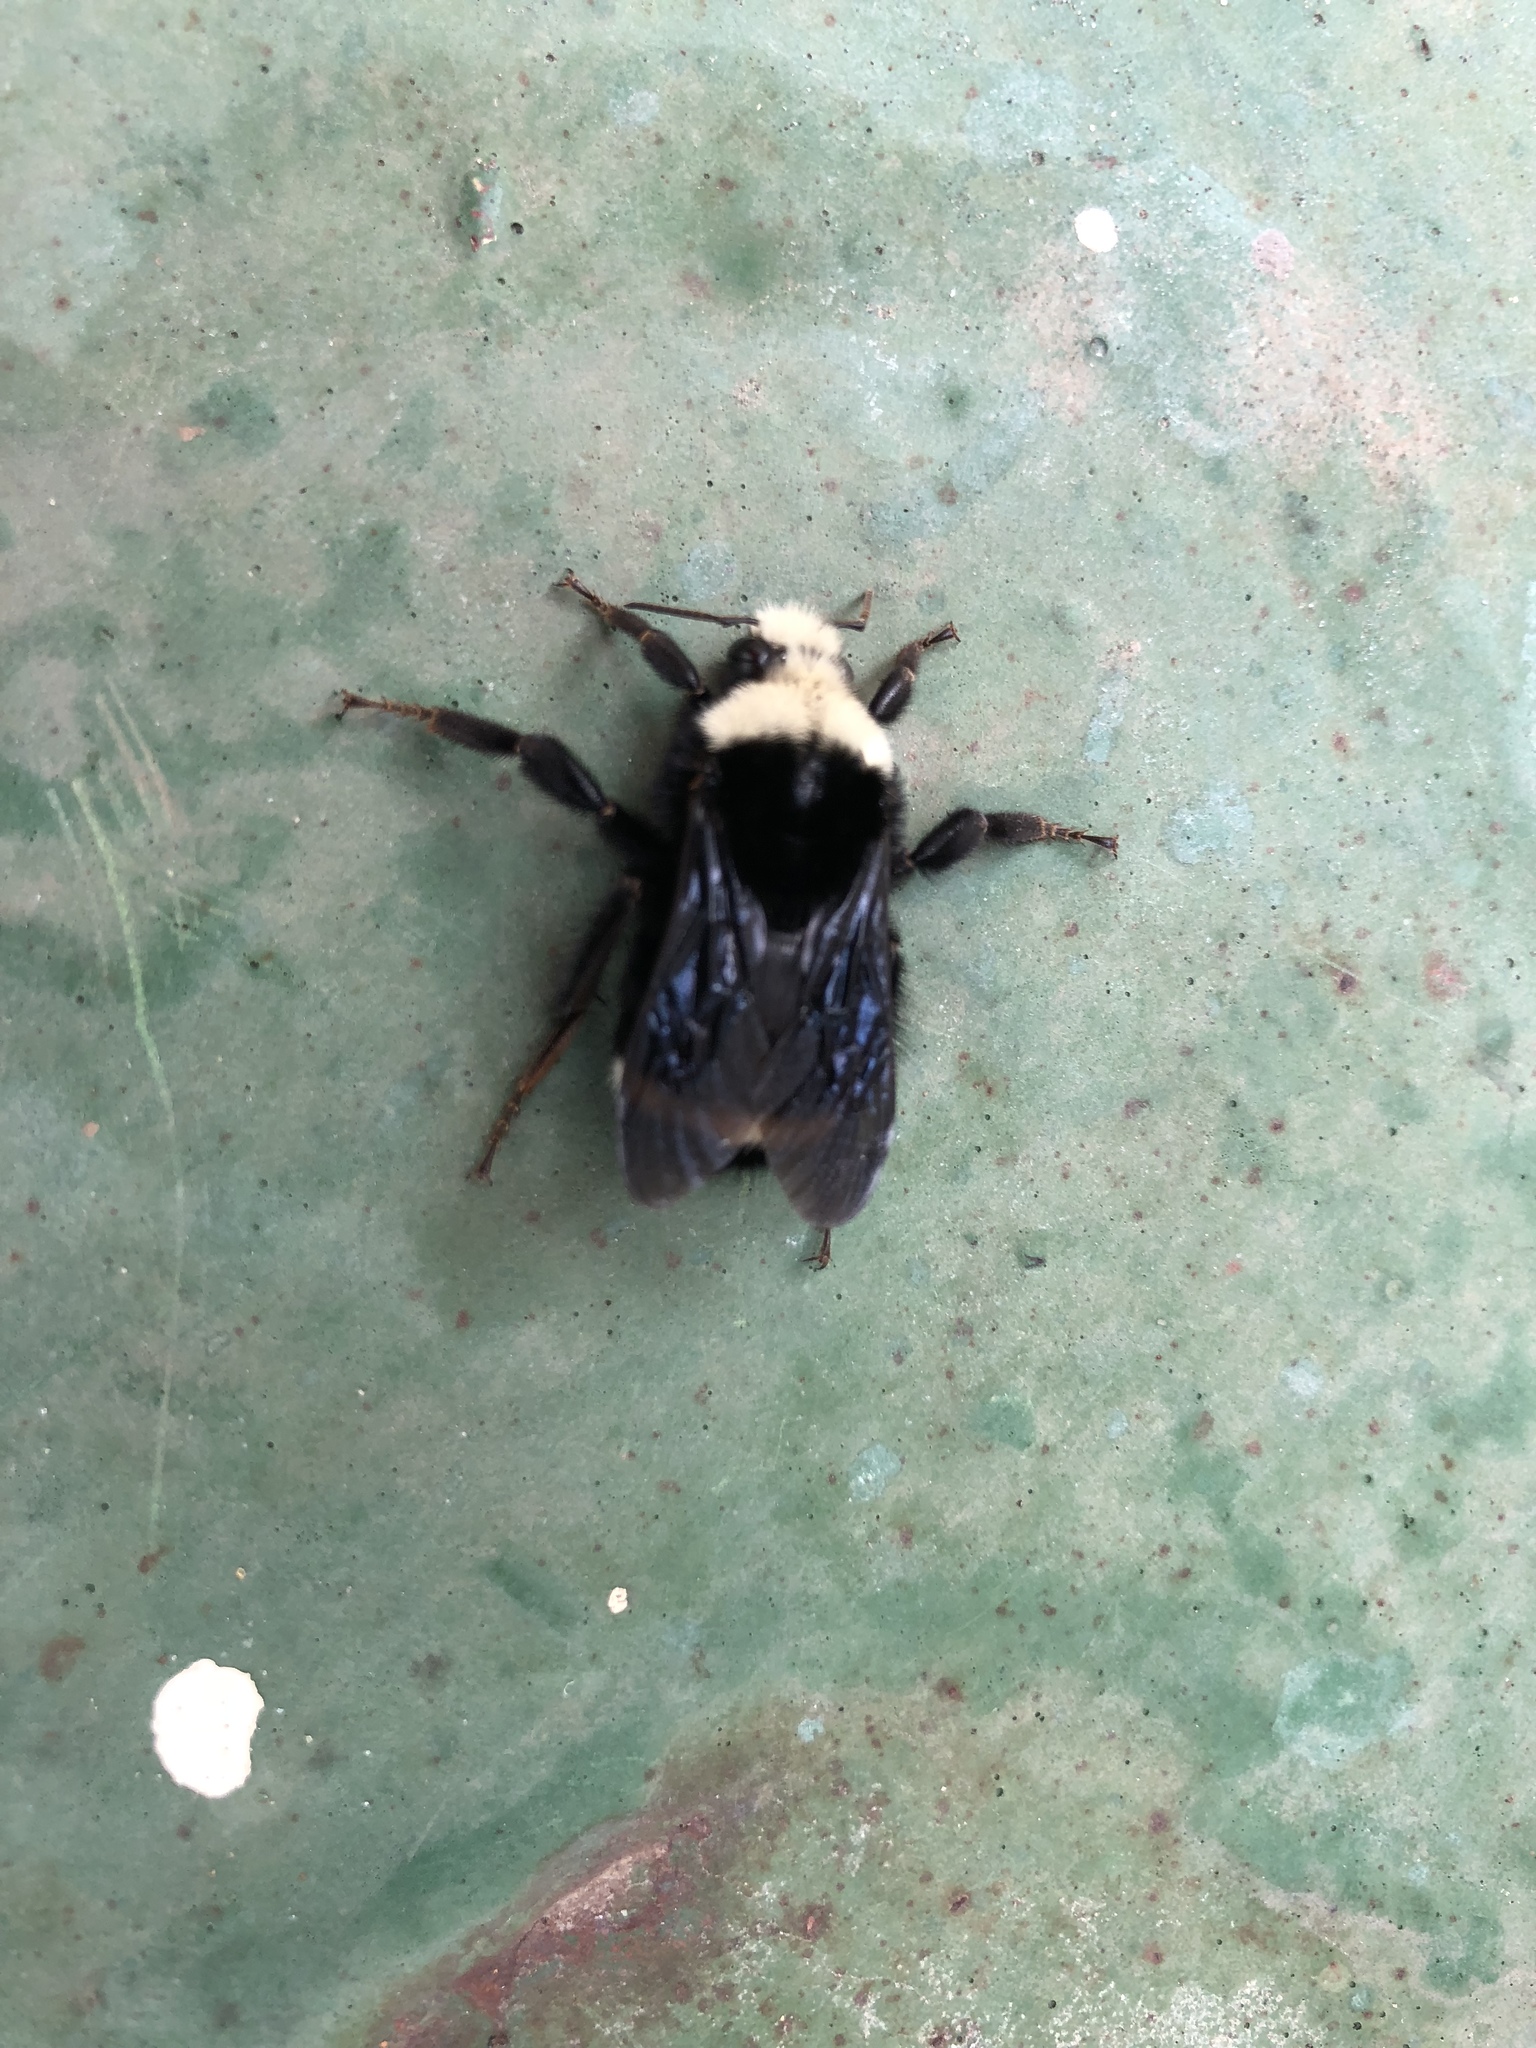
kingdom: Animalia
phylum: Arthropoda
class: Insecta
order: Hymenoptera
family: Apidae
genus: Bombus
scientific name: Bombus vosnesenskii
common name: Vosnesensky bumble bee
